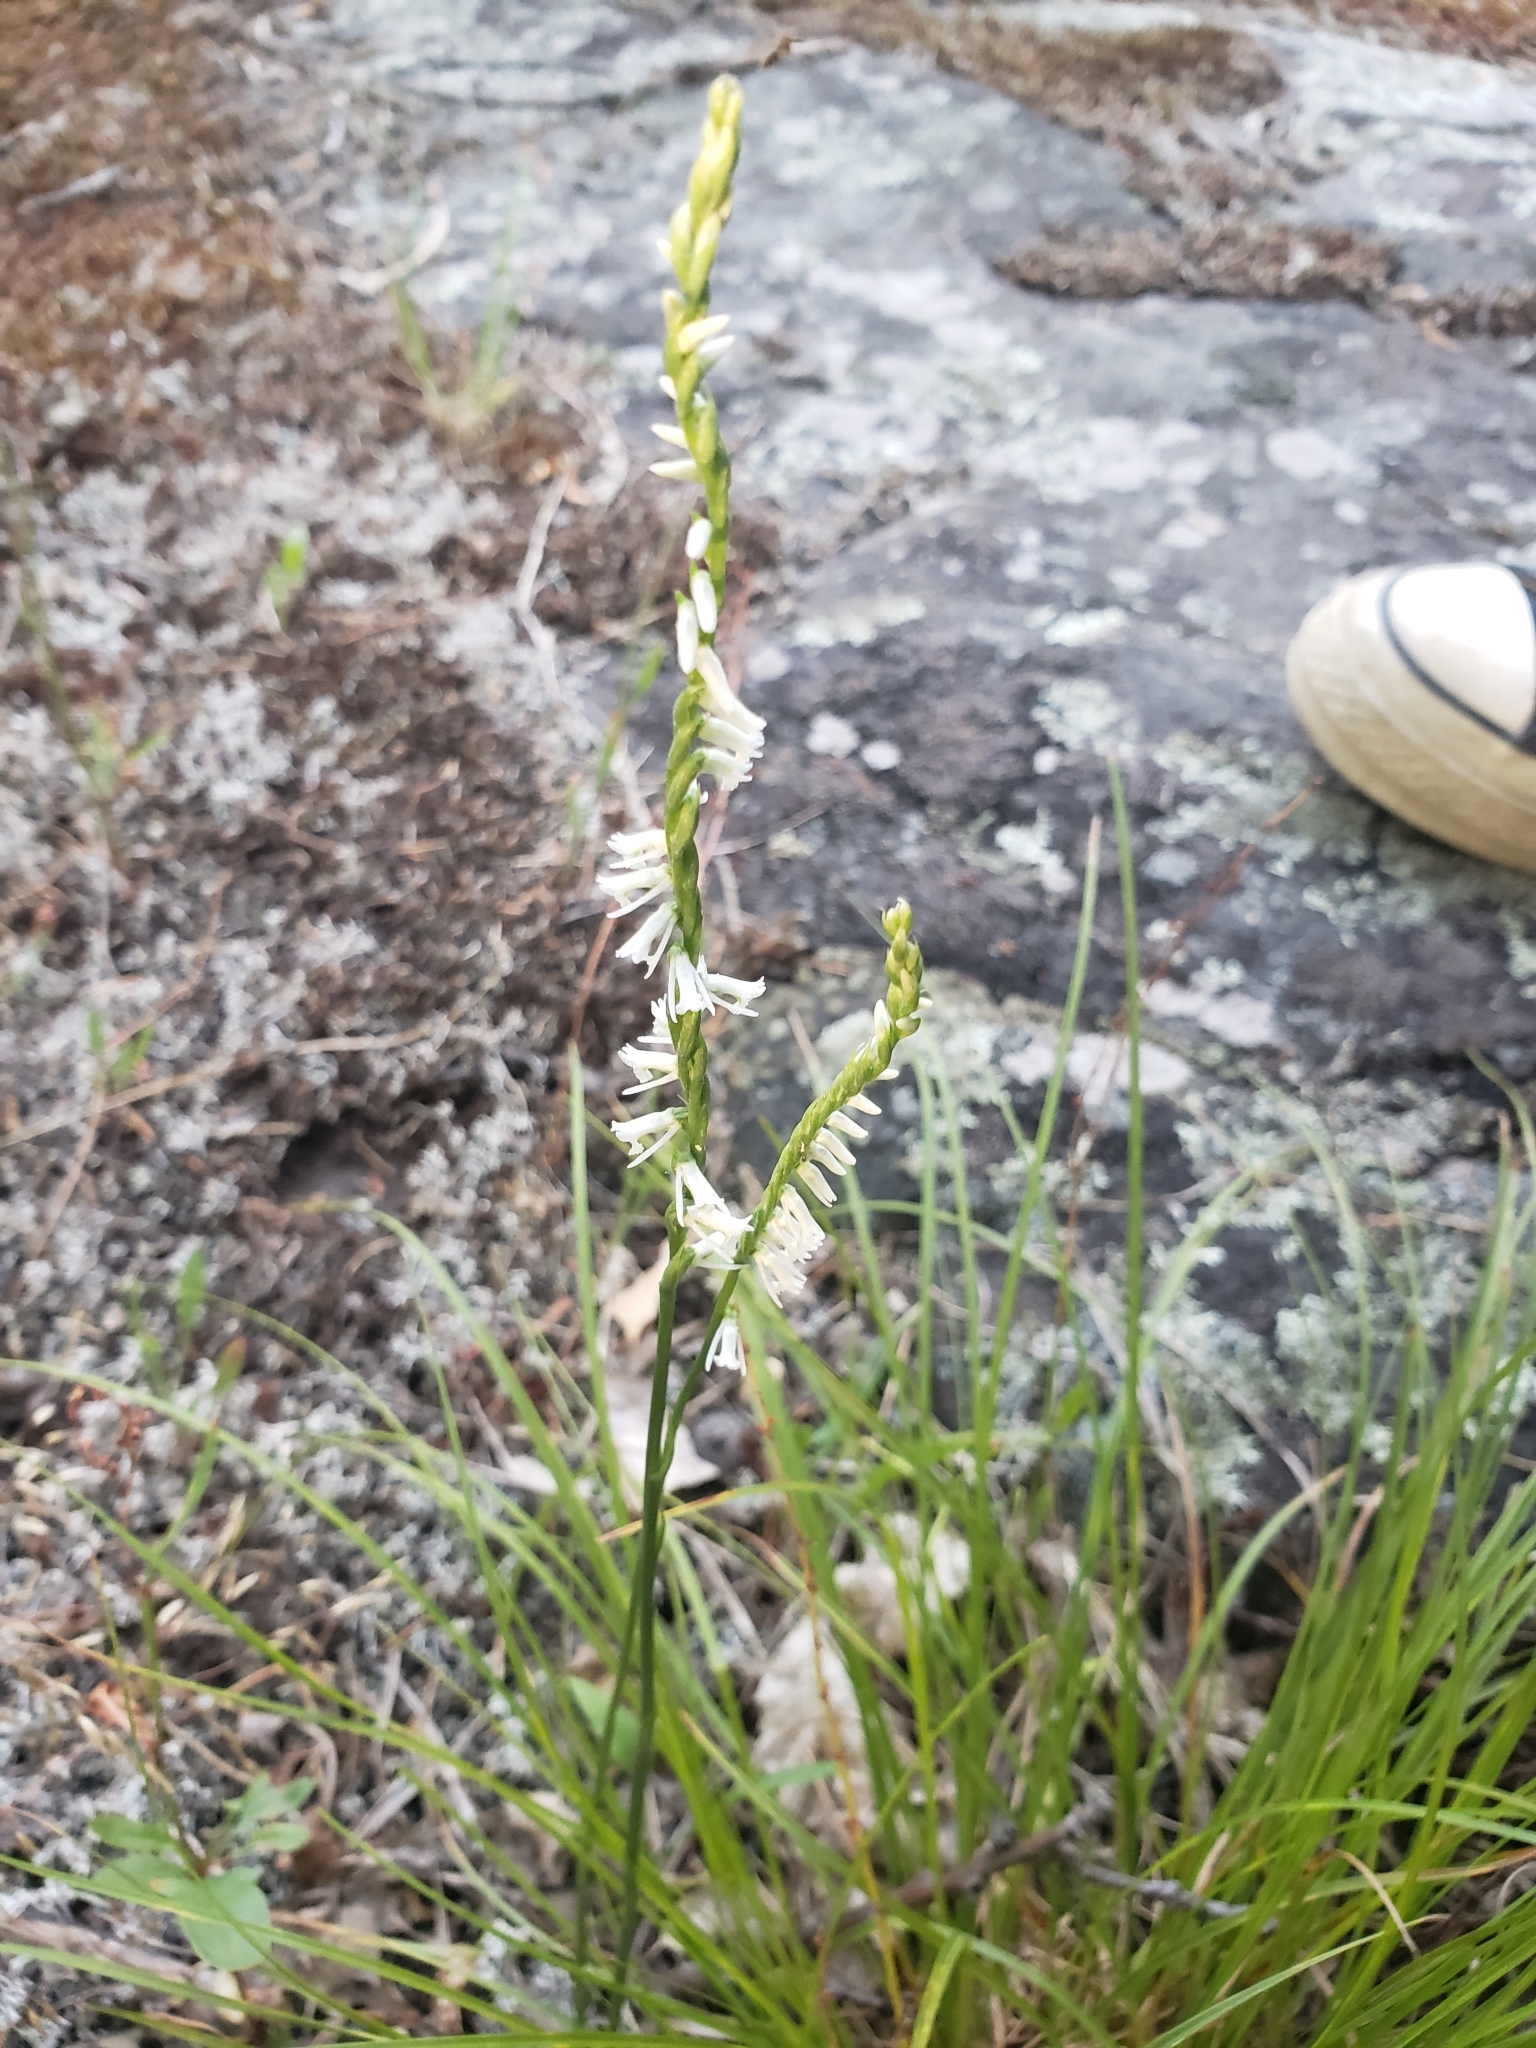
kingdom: Plantae
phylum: Tracheophyta
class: Liliopsida
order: Asparagales
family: Orchidaceae
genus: Spiranthes
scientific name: Spiranthes lacera
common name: Northern slender ladies'-tresses
